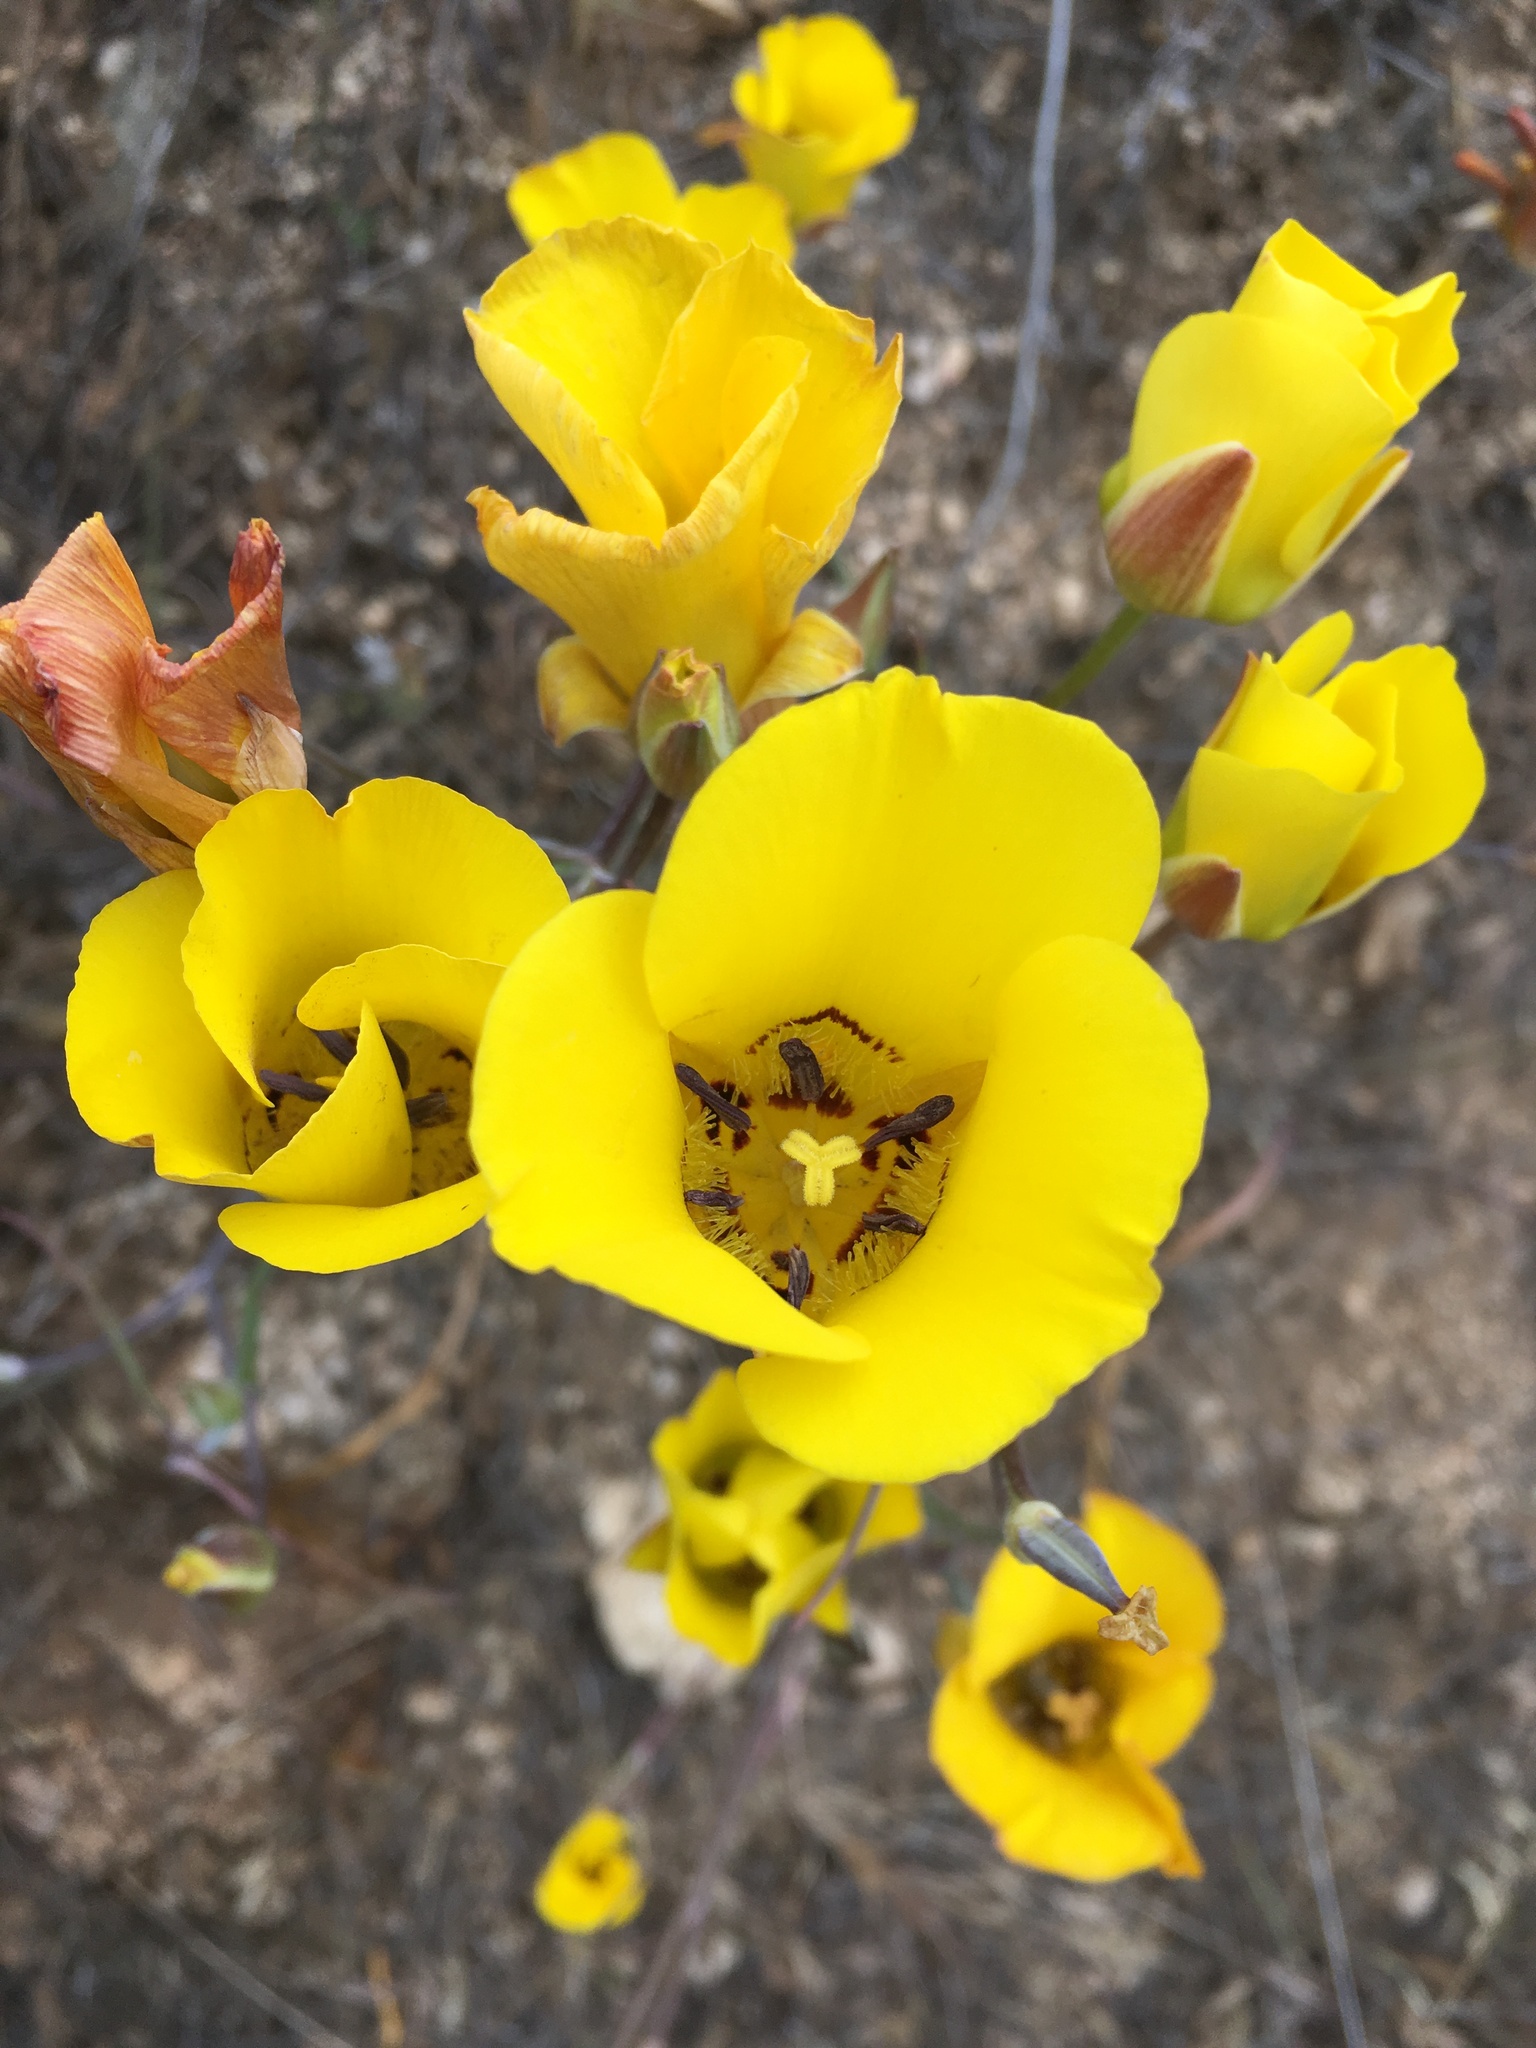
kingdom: Plantae
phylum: Tracheophyta
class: Liliopsida
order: Liliales
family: Liliaceae
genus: Calochortus
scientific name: Calochortus clavatus
